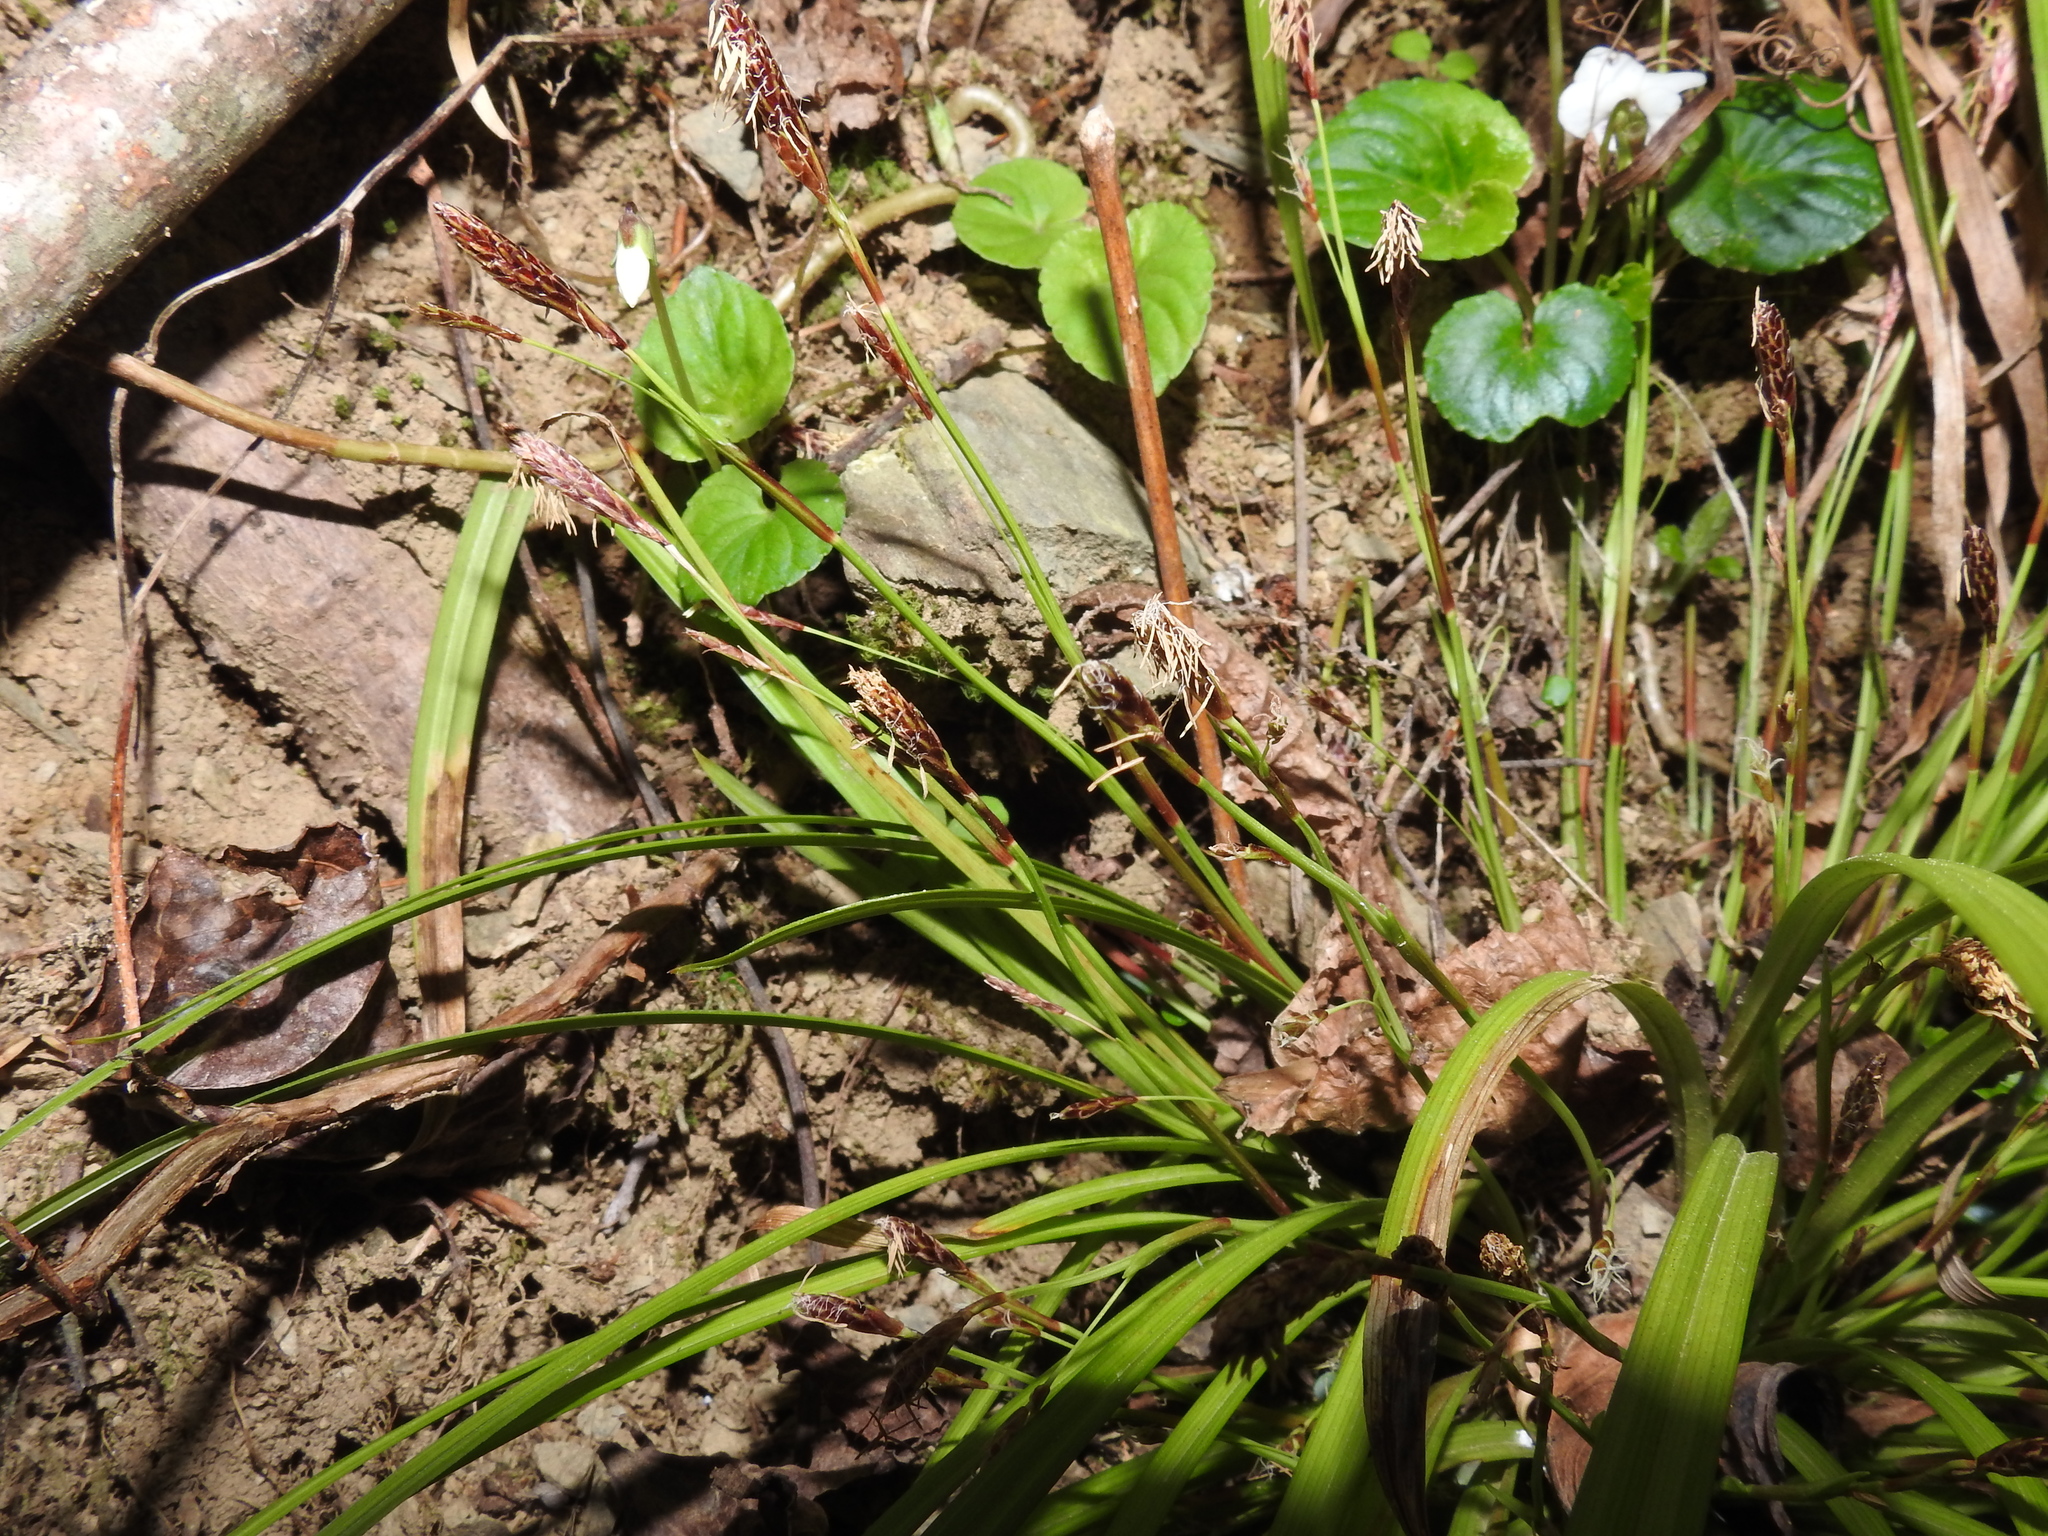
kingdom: Plantae
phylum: Tracheophyta
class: Liliopsida
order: Poales
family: Cyperaceae
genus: Carex
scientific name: Carex pedunculata
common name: Pedunculate sedge
